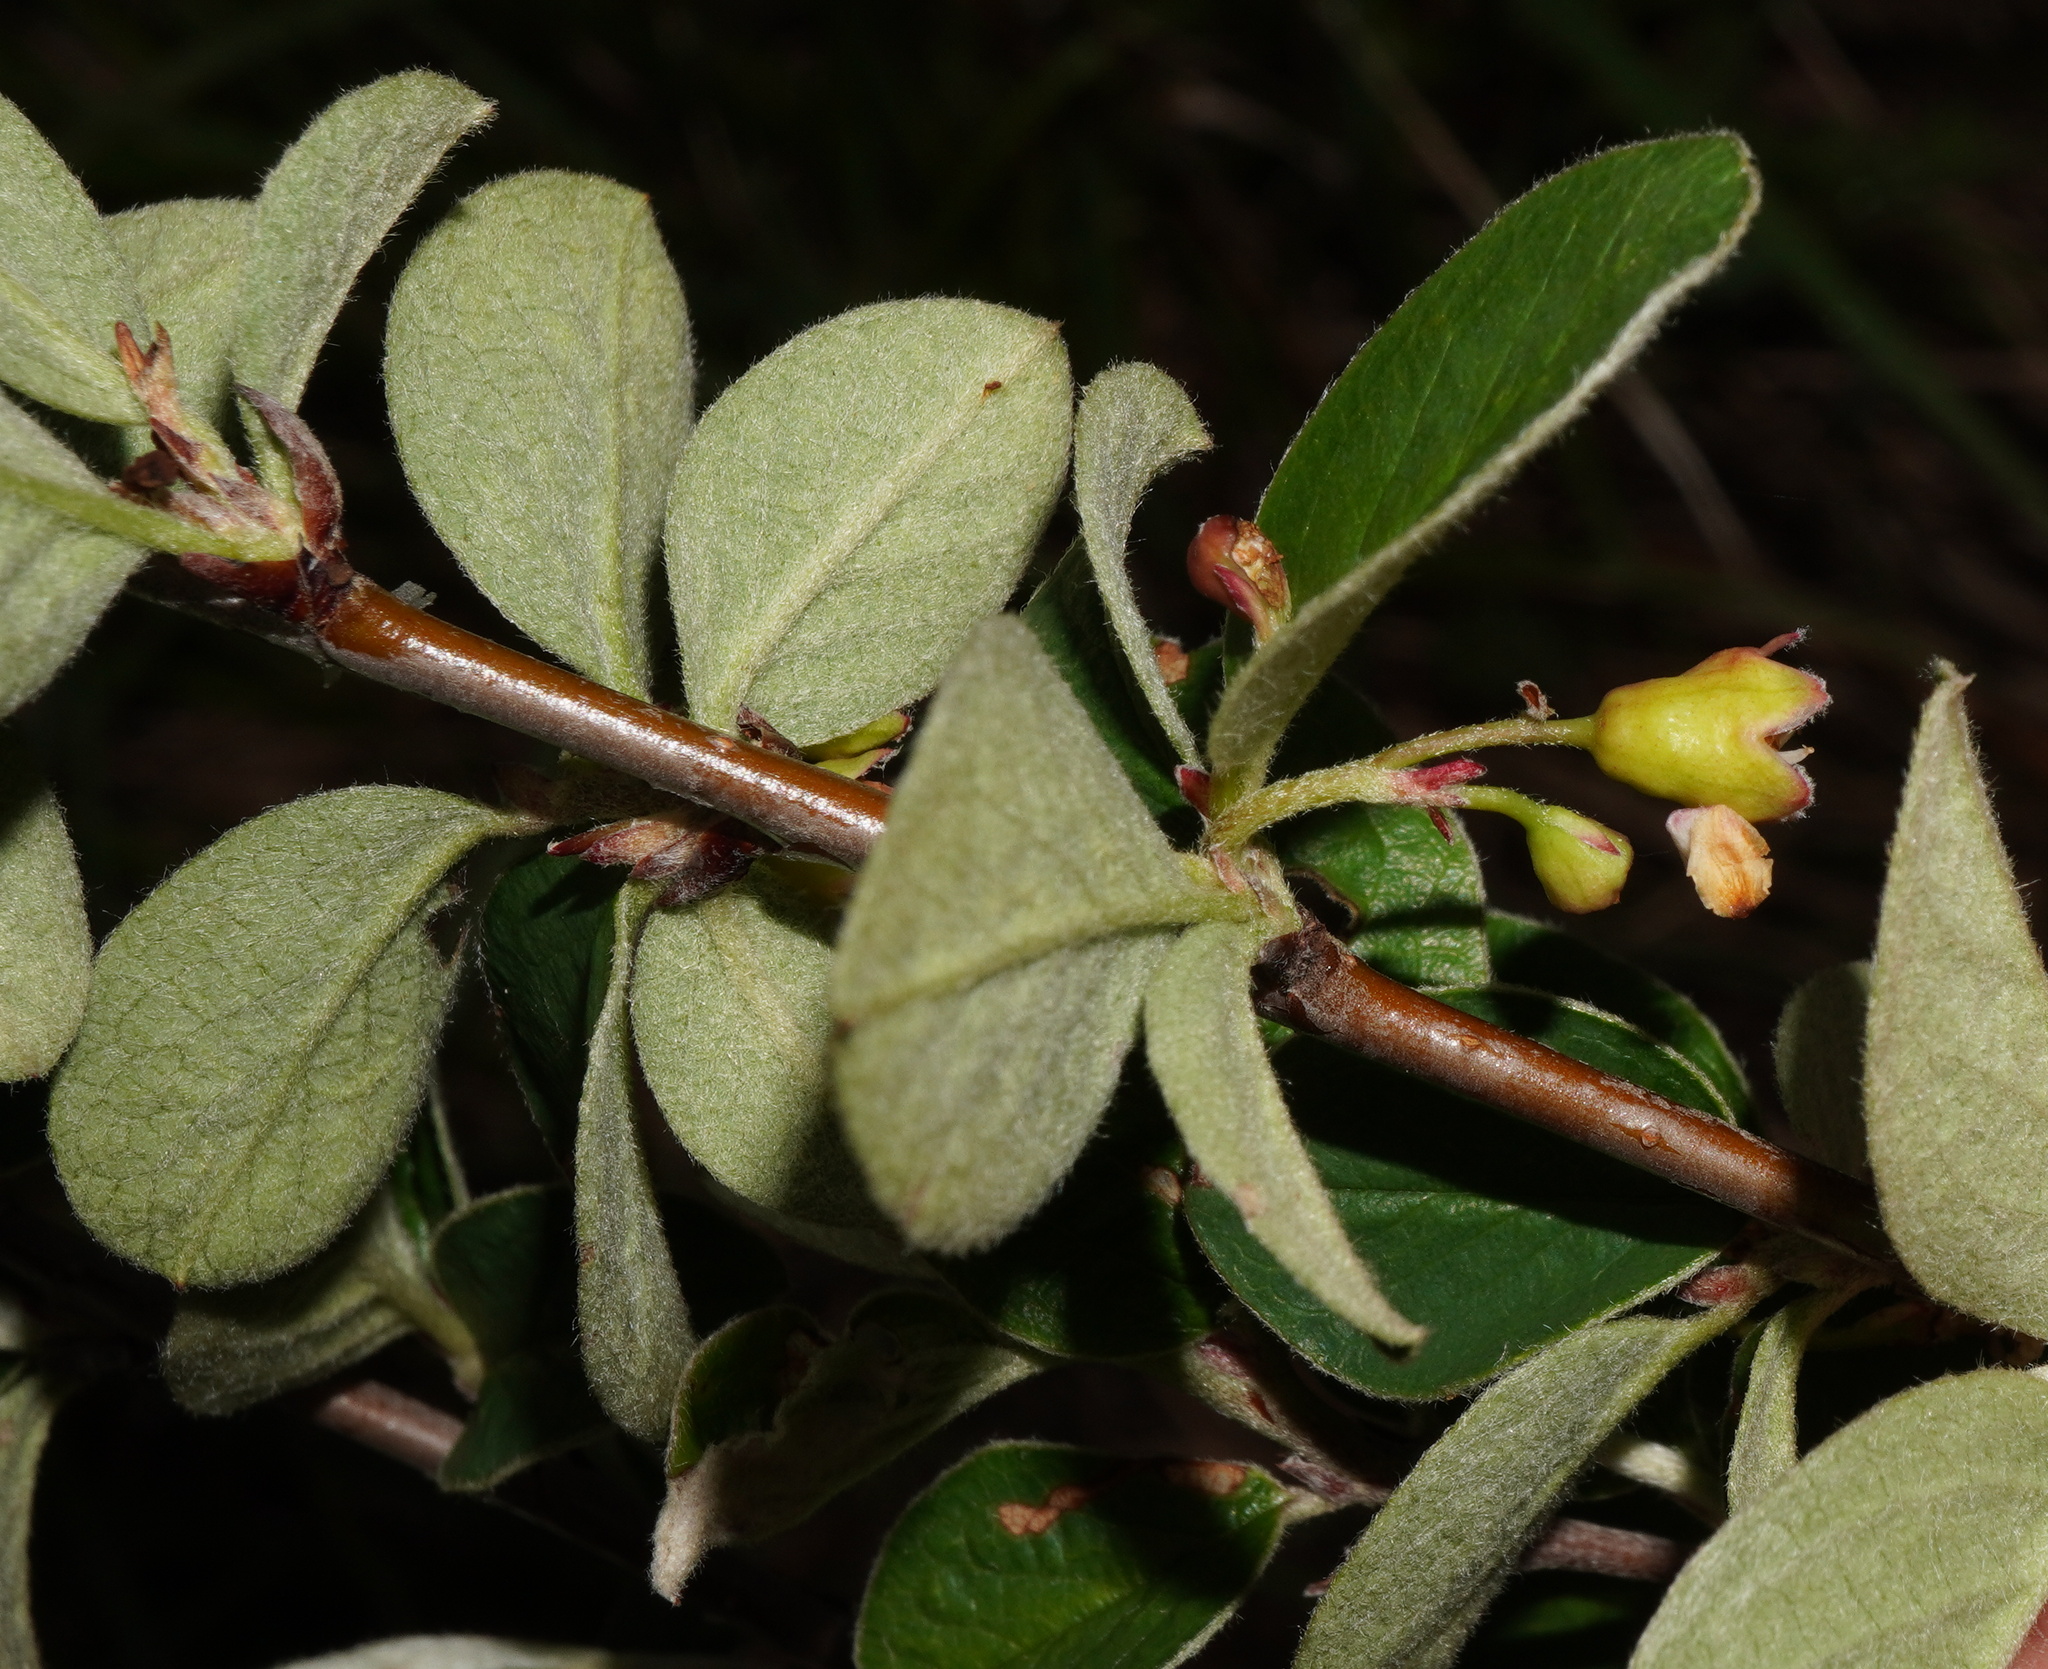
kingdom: Plantae
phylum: Tracheophyta
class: Magnoliopsida
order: Rosales
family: Rosaceae
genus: Cotoneaster
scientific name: Cotoneaster integerrimus
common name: Wild cotoneaster
